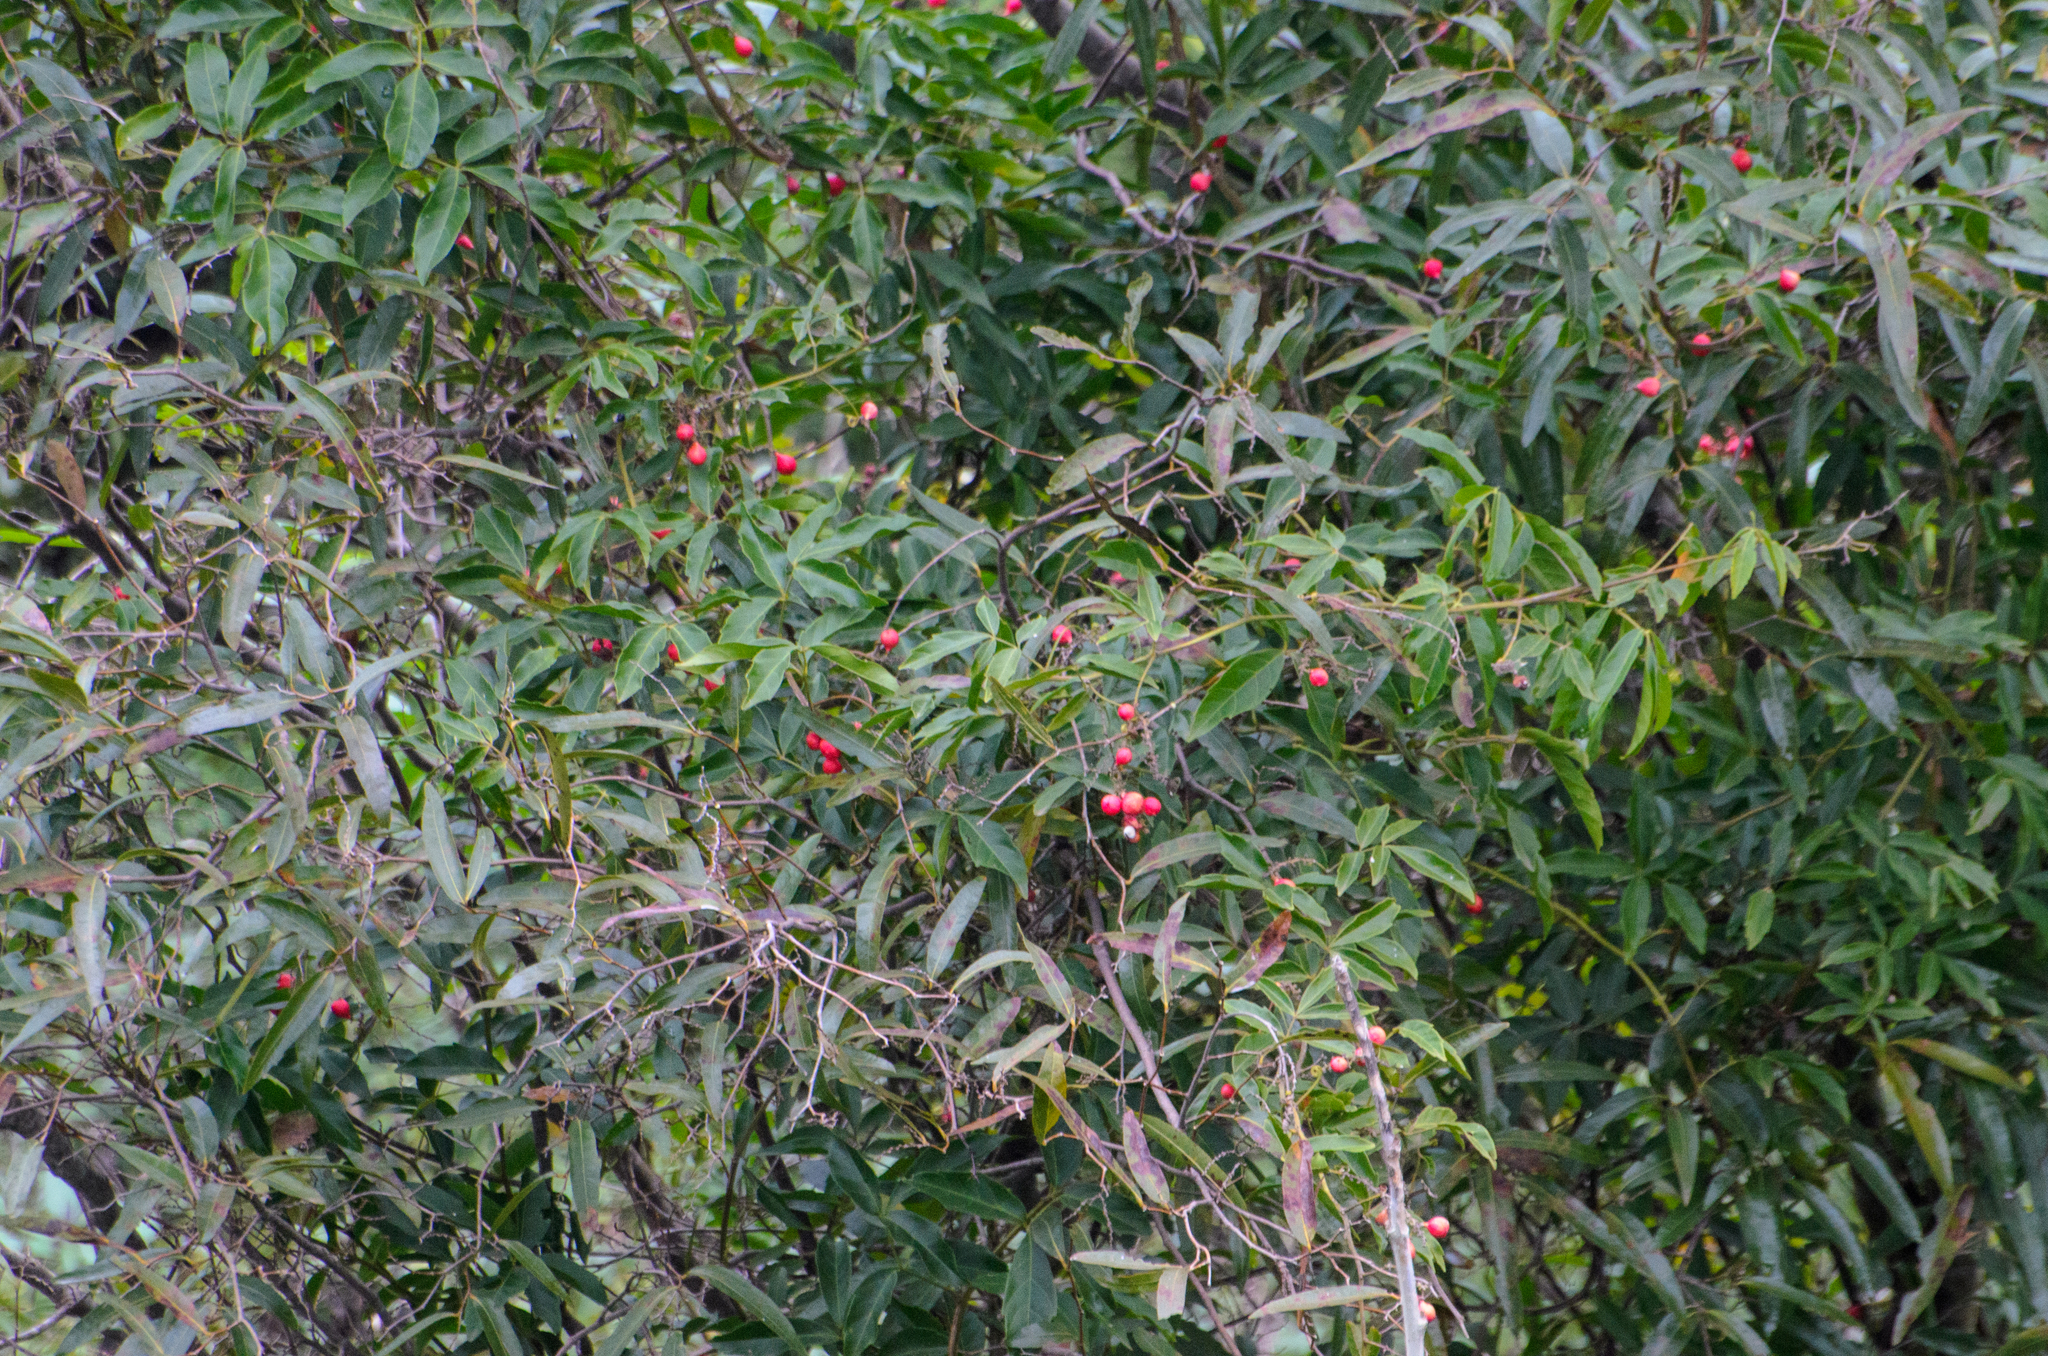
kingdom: Plantae
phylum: Tracheophyta
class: Magnoliopsida
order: Sapindales
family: Sapindaceae
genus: Paullinia
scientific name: Paullinia elegans
